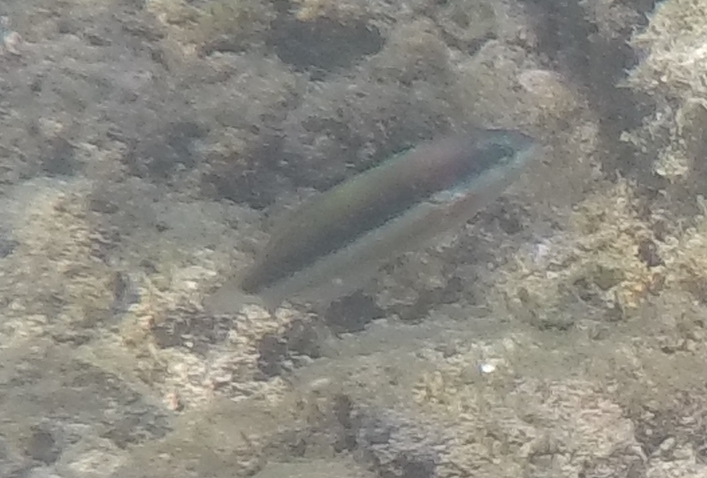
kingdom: Animalia
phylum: Chordata
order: Perciformes
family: Labridae
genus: Thalassoma
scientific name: Thalassoma duperrey
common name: Saddle wrasse
